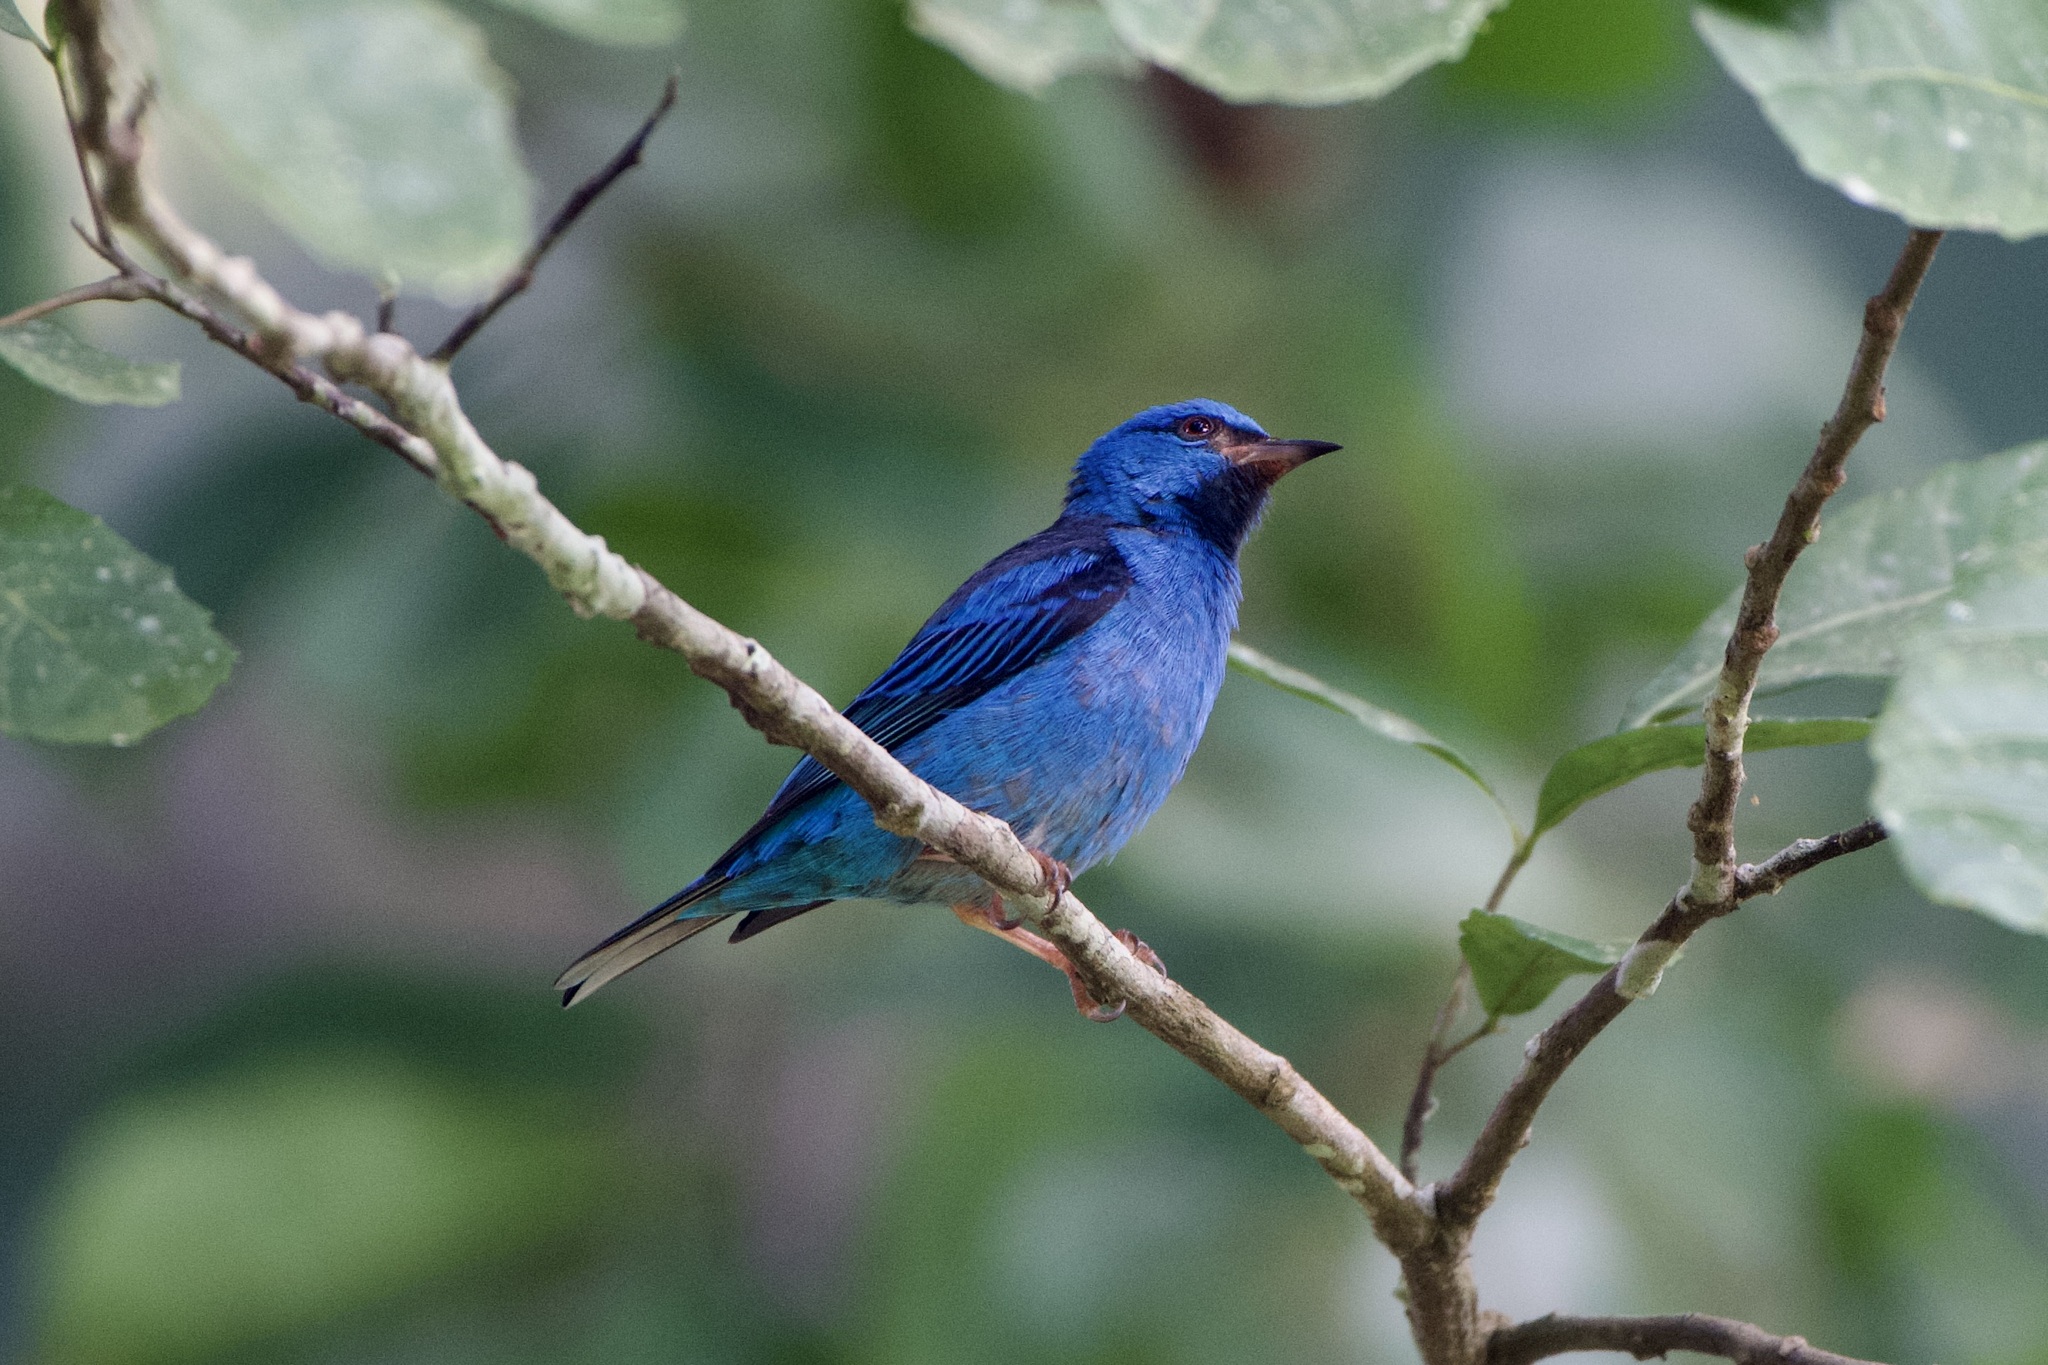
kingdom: Animalia
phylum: Chordata
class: Aves
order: Passeriformes
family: Thraupidae
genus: Dacnis
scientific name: Dacnis cayana
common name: Blue dacnis
